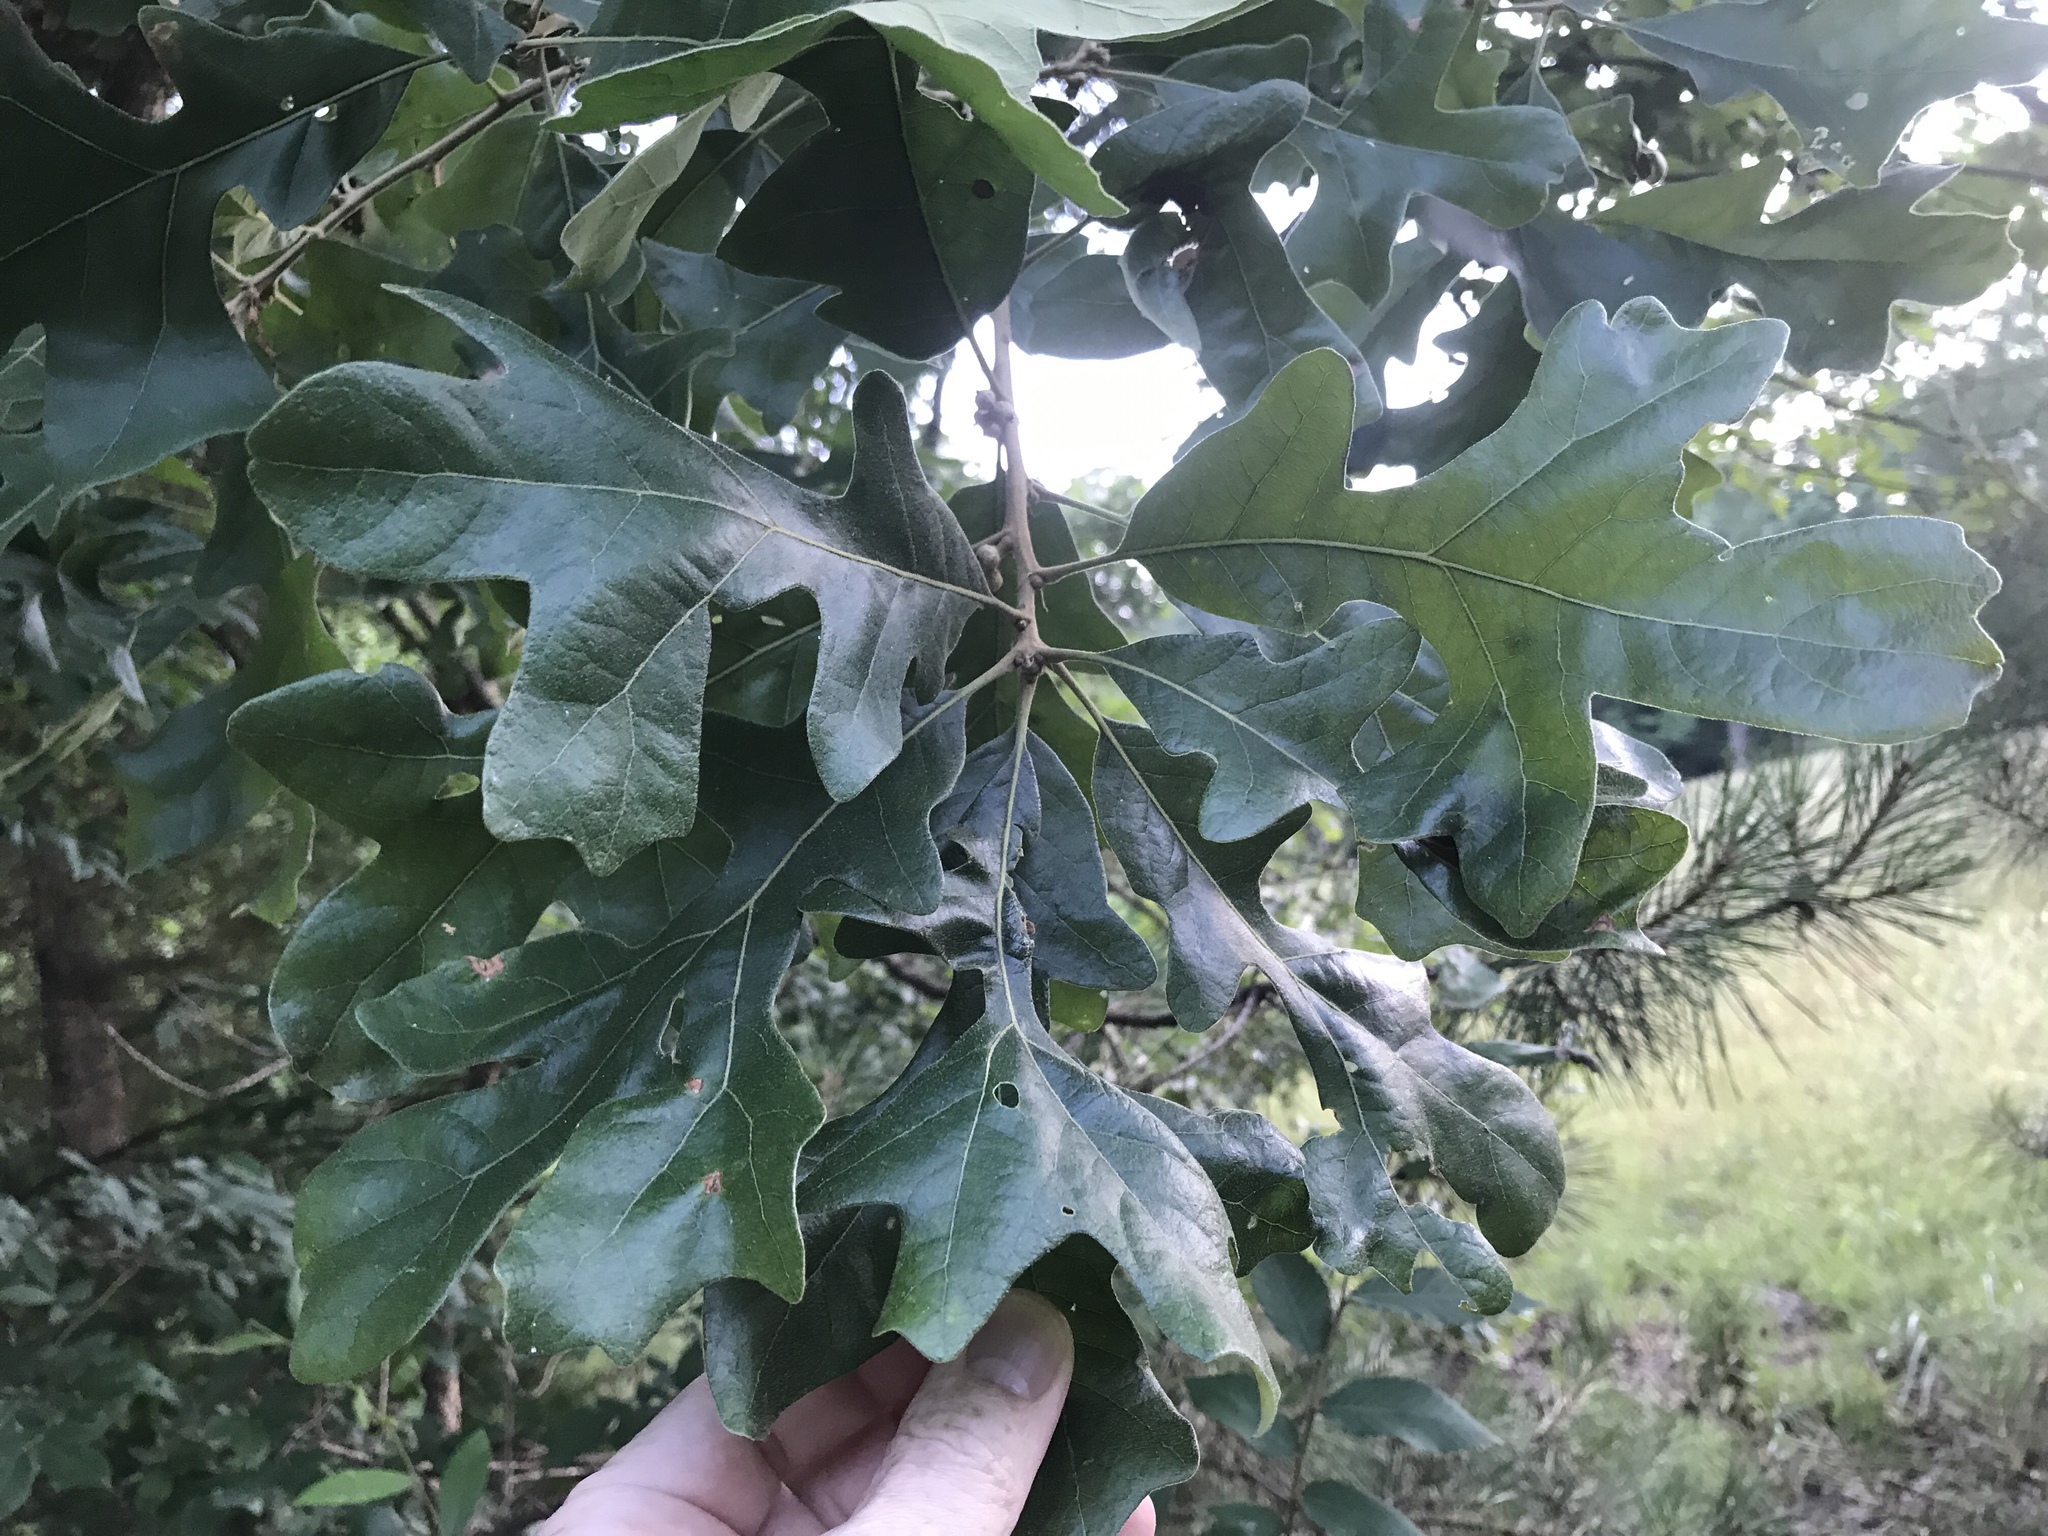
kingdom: Plantae
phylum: Tracheophyta
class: Magnoliopsida
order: Fagales
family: Fagaceae
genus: Quercus
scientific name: Quercus stellata
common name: Post oak
